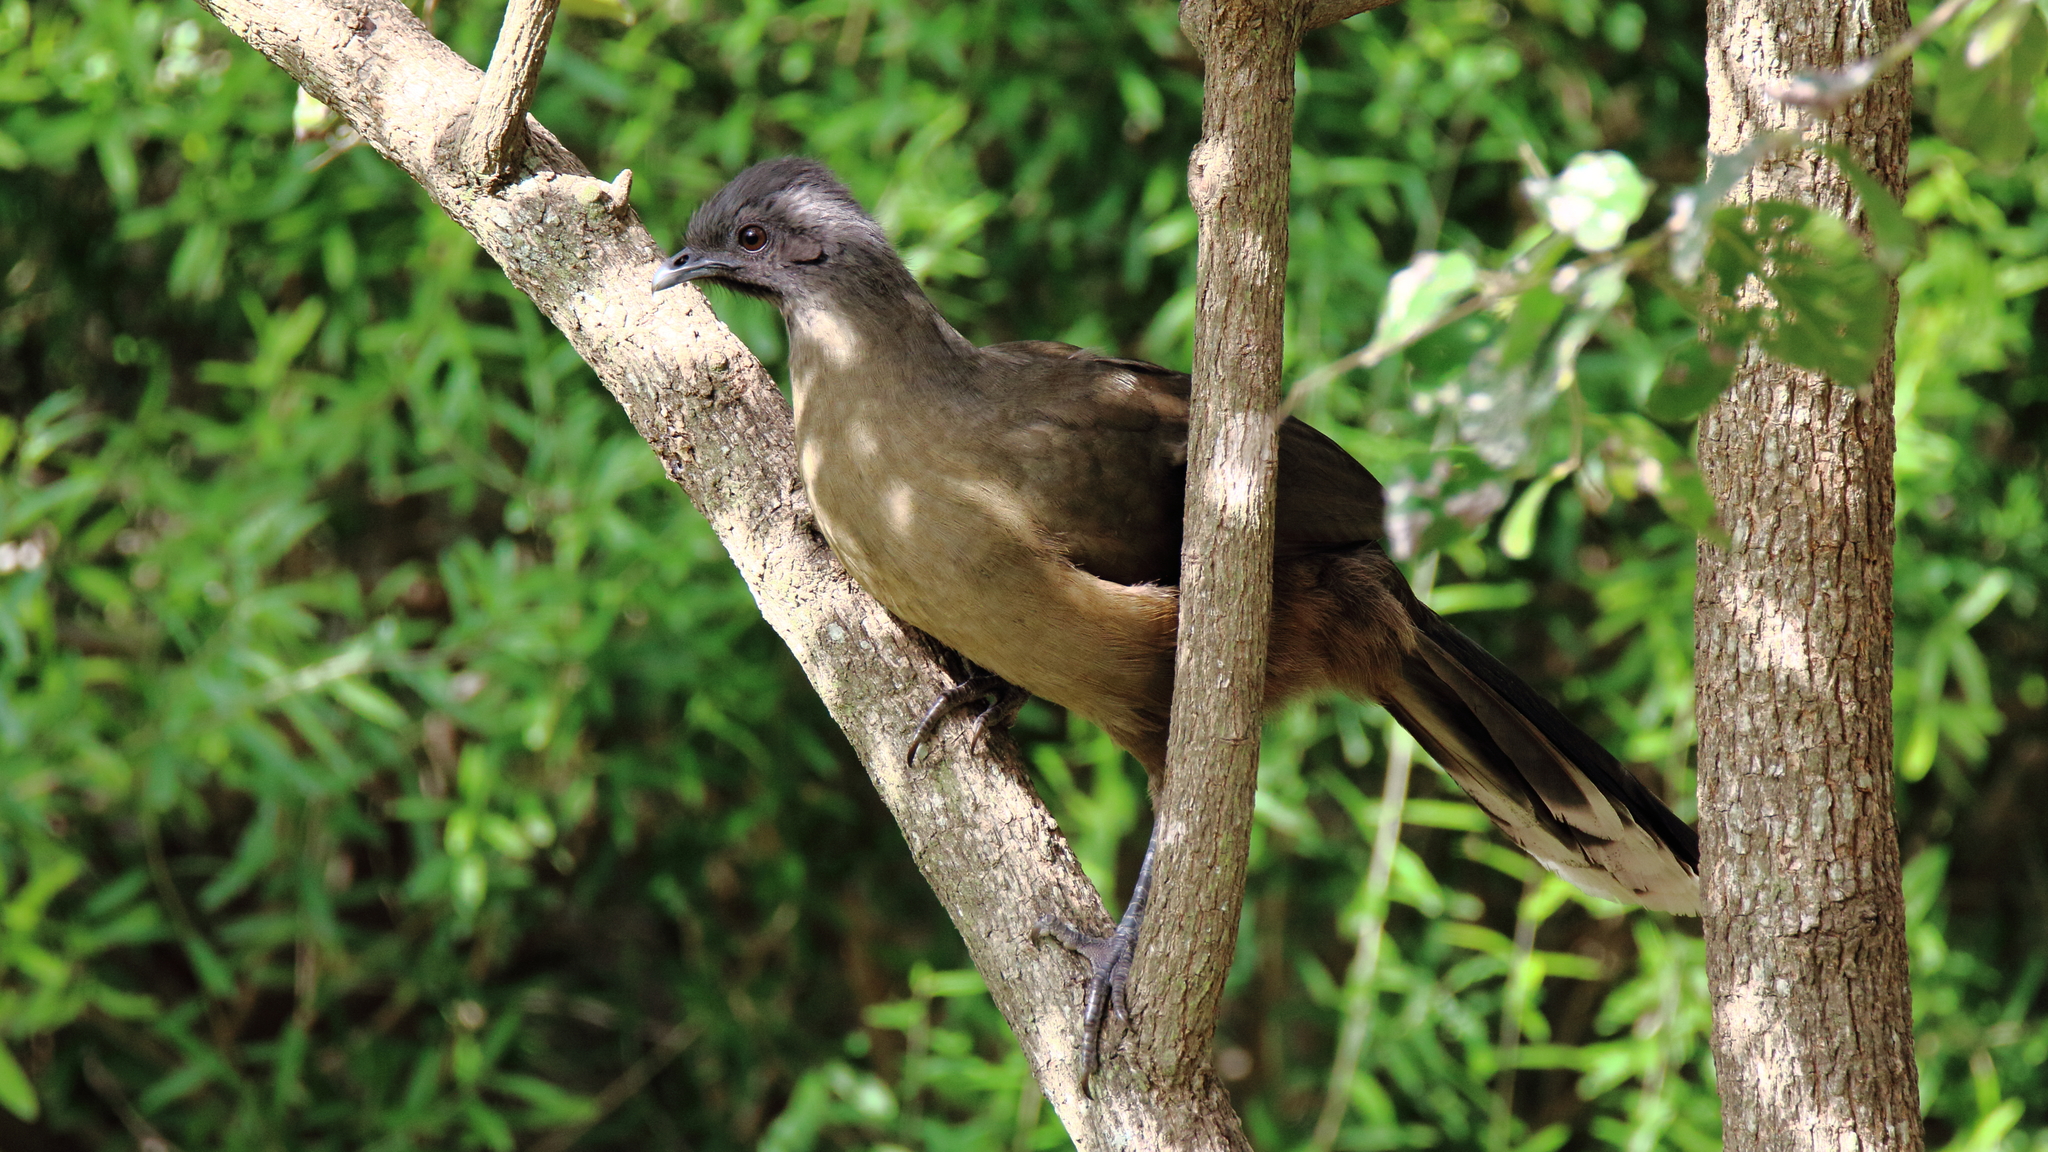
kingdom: Animalia
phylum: Chordata
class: Aves
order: Galliformes
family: Cracidae
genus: Ortalis
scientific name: Ortalis vetula
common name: Plain chachalaca
